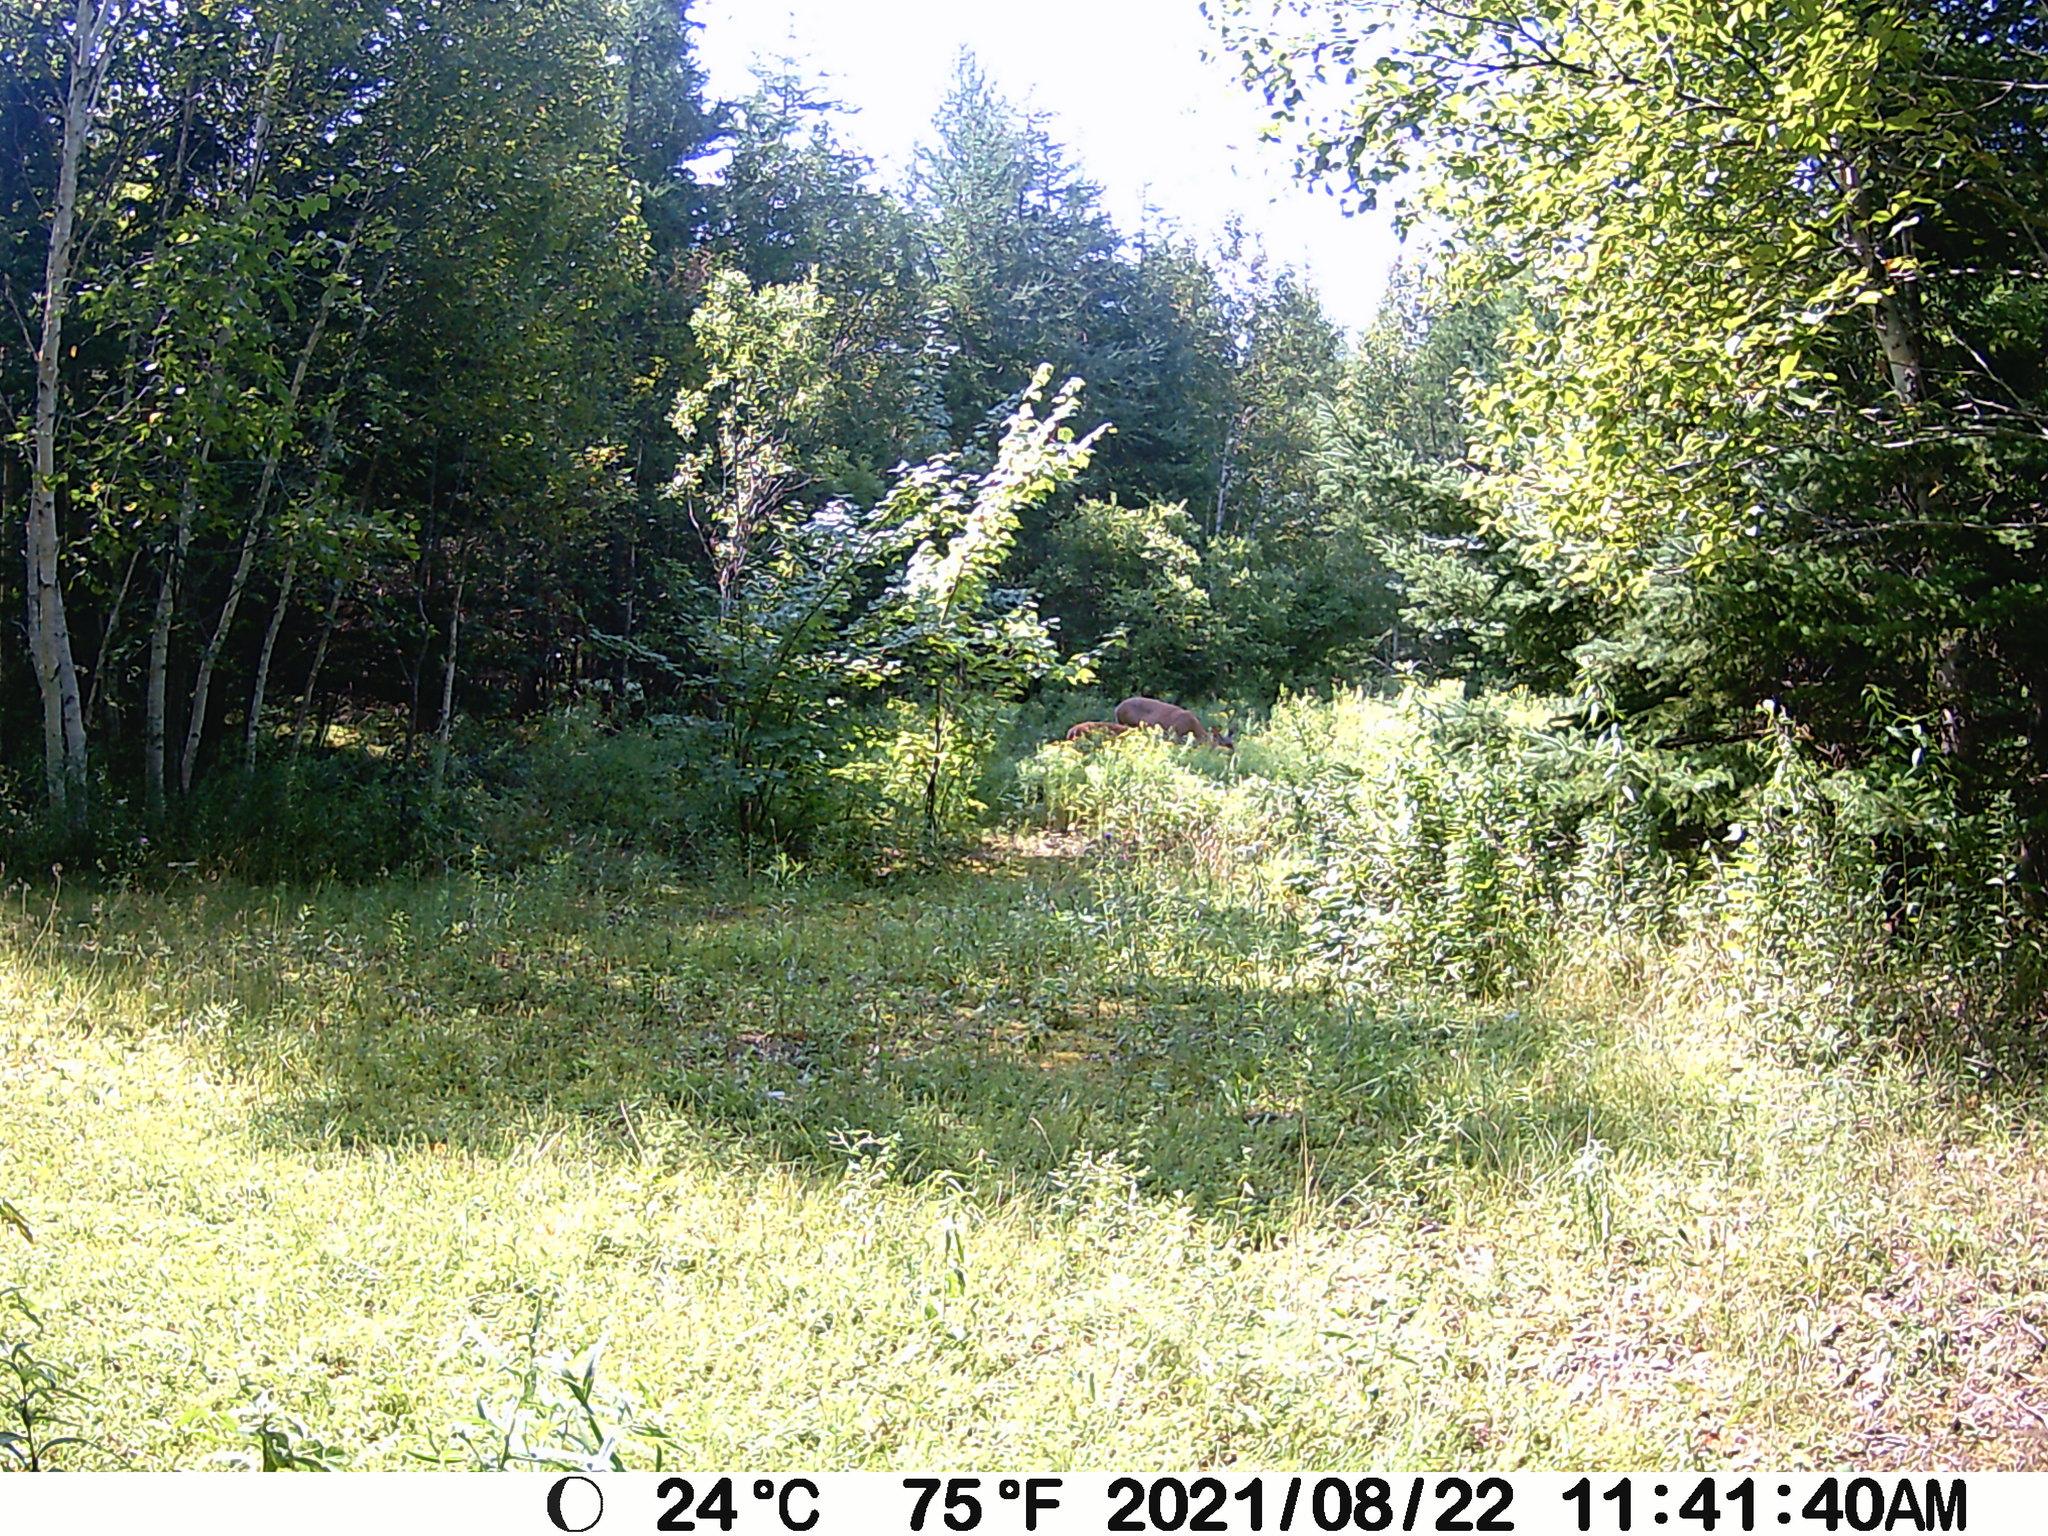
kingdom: Animalia
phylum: Chordata
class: Mammalia
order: Artiodactyla
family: Cervidae
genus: Odocoileus
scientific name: Odocoileus virginianus
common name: White-tailed deer
